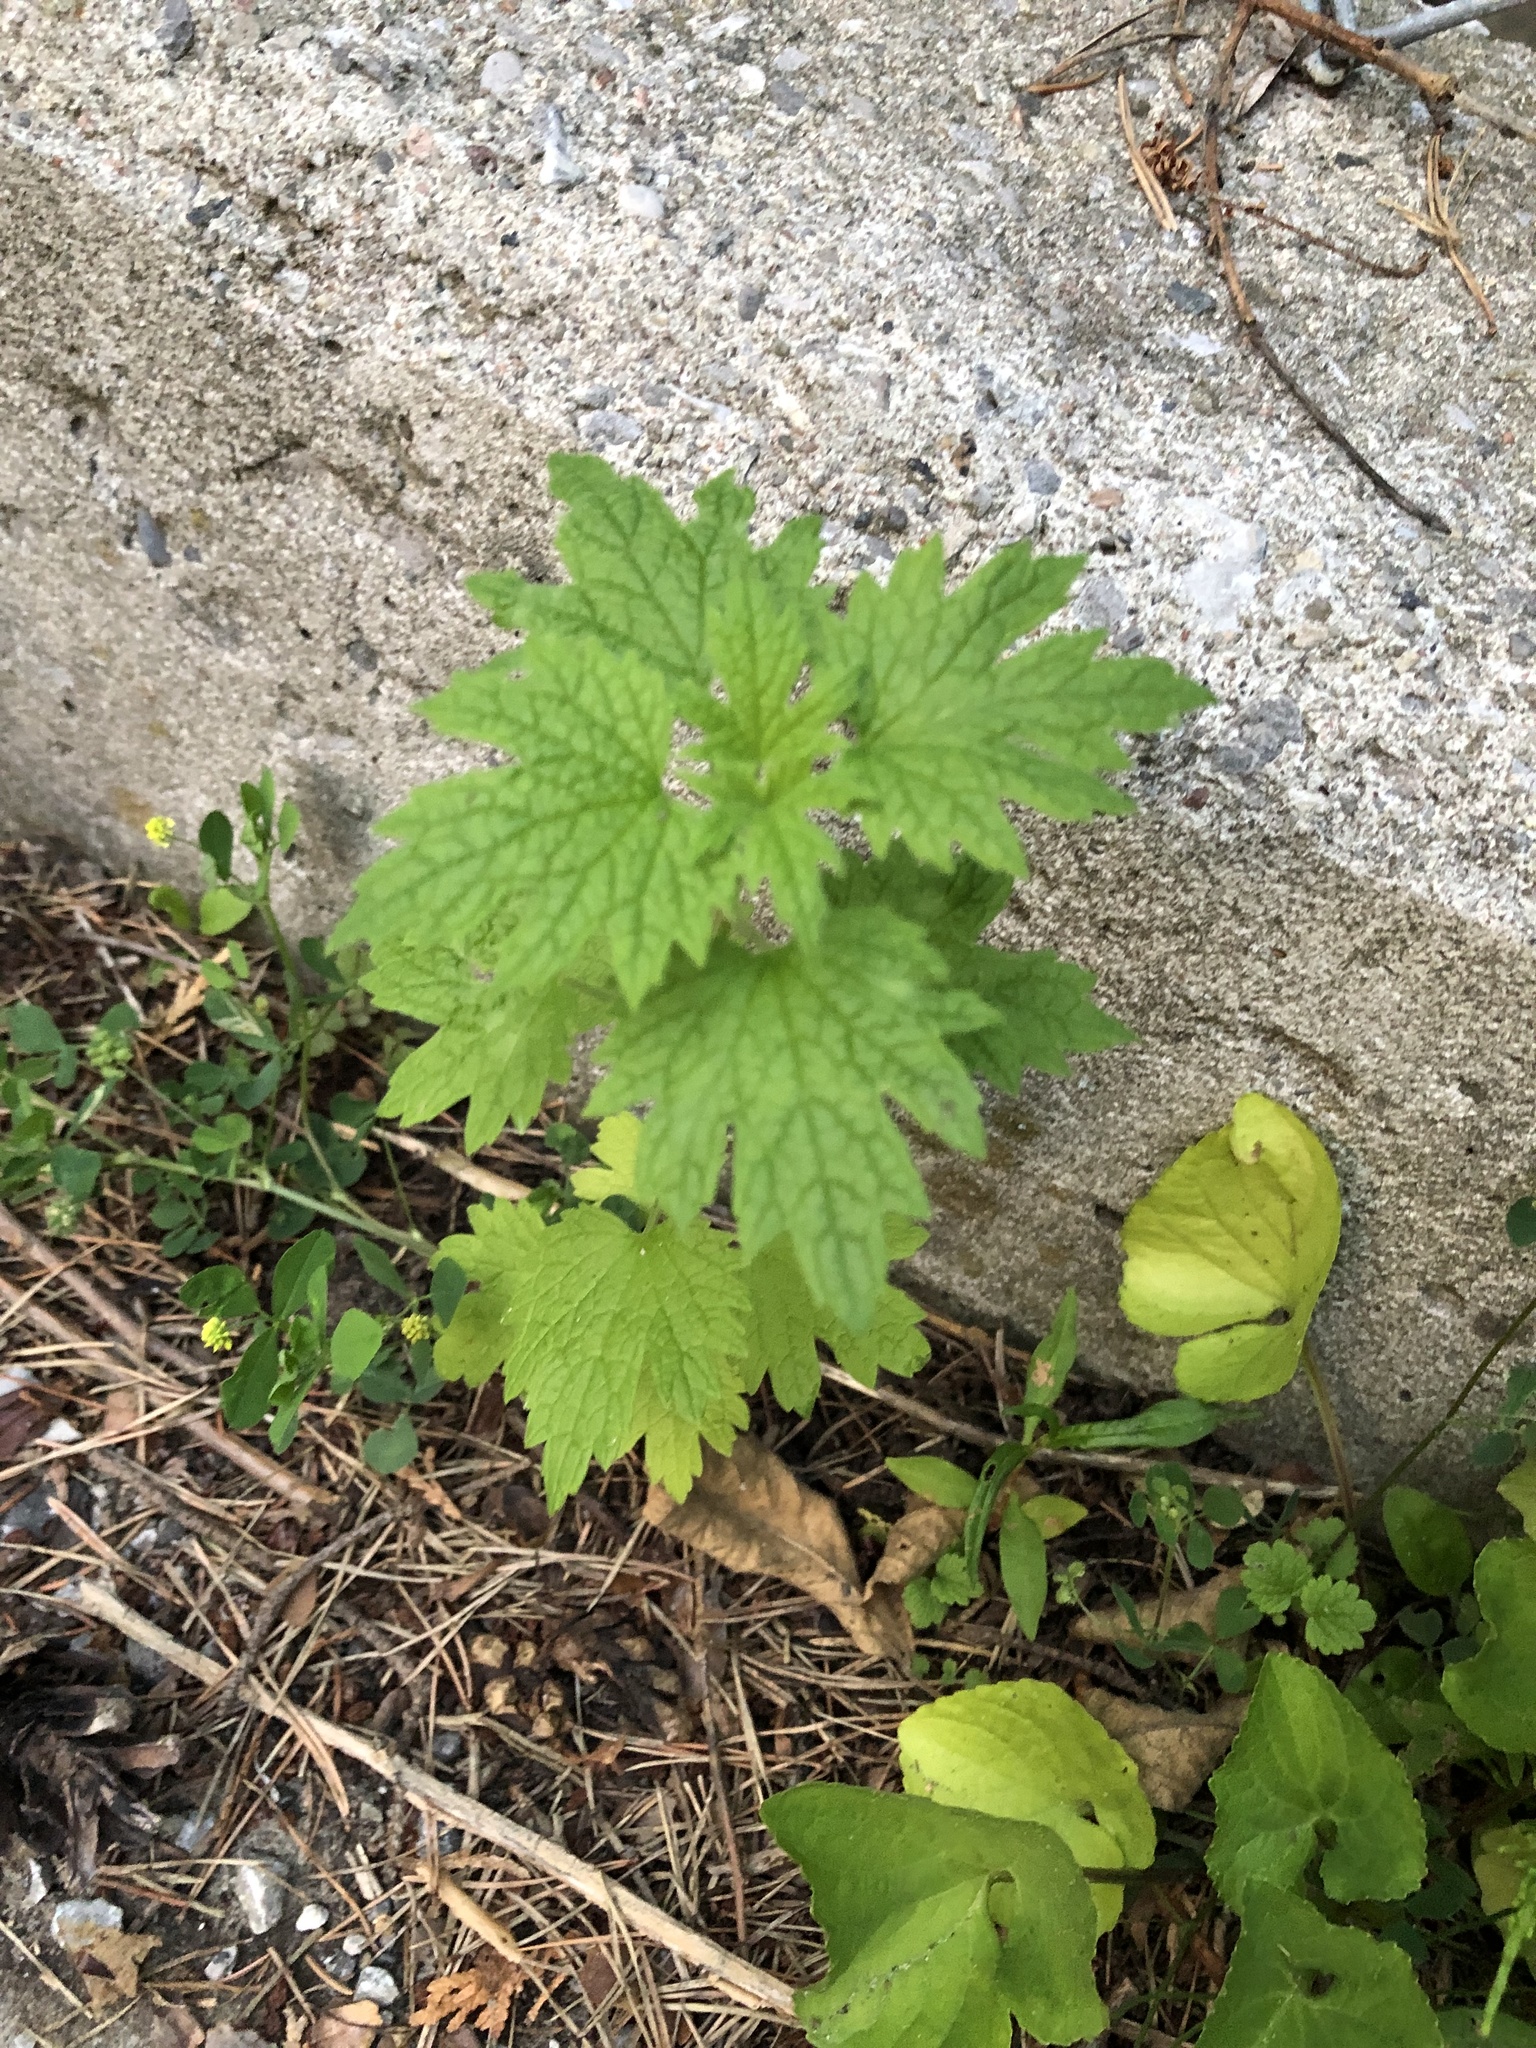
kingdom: Plantae
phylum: Tracheophyta
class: Magnoliopsida
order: Lamiales
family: Lamiaceae
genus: Leonurus
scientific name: Leonurus cardiaca
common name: Motherwort
